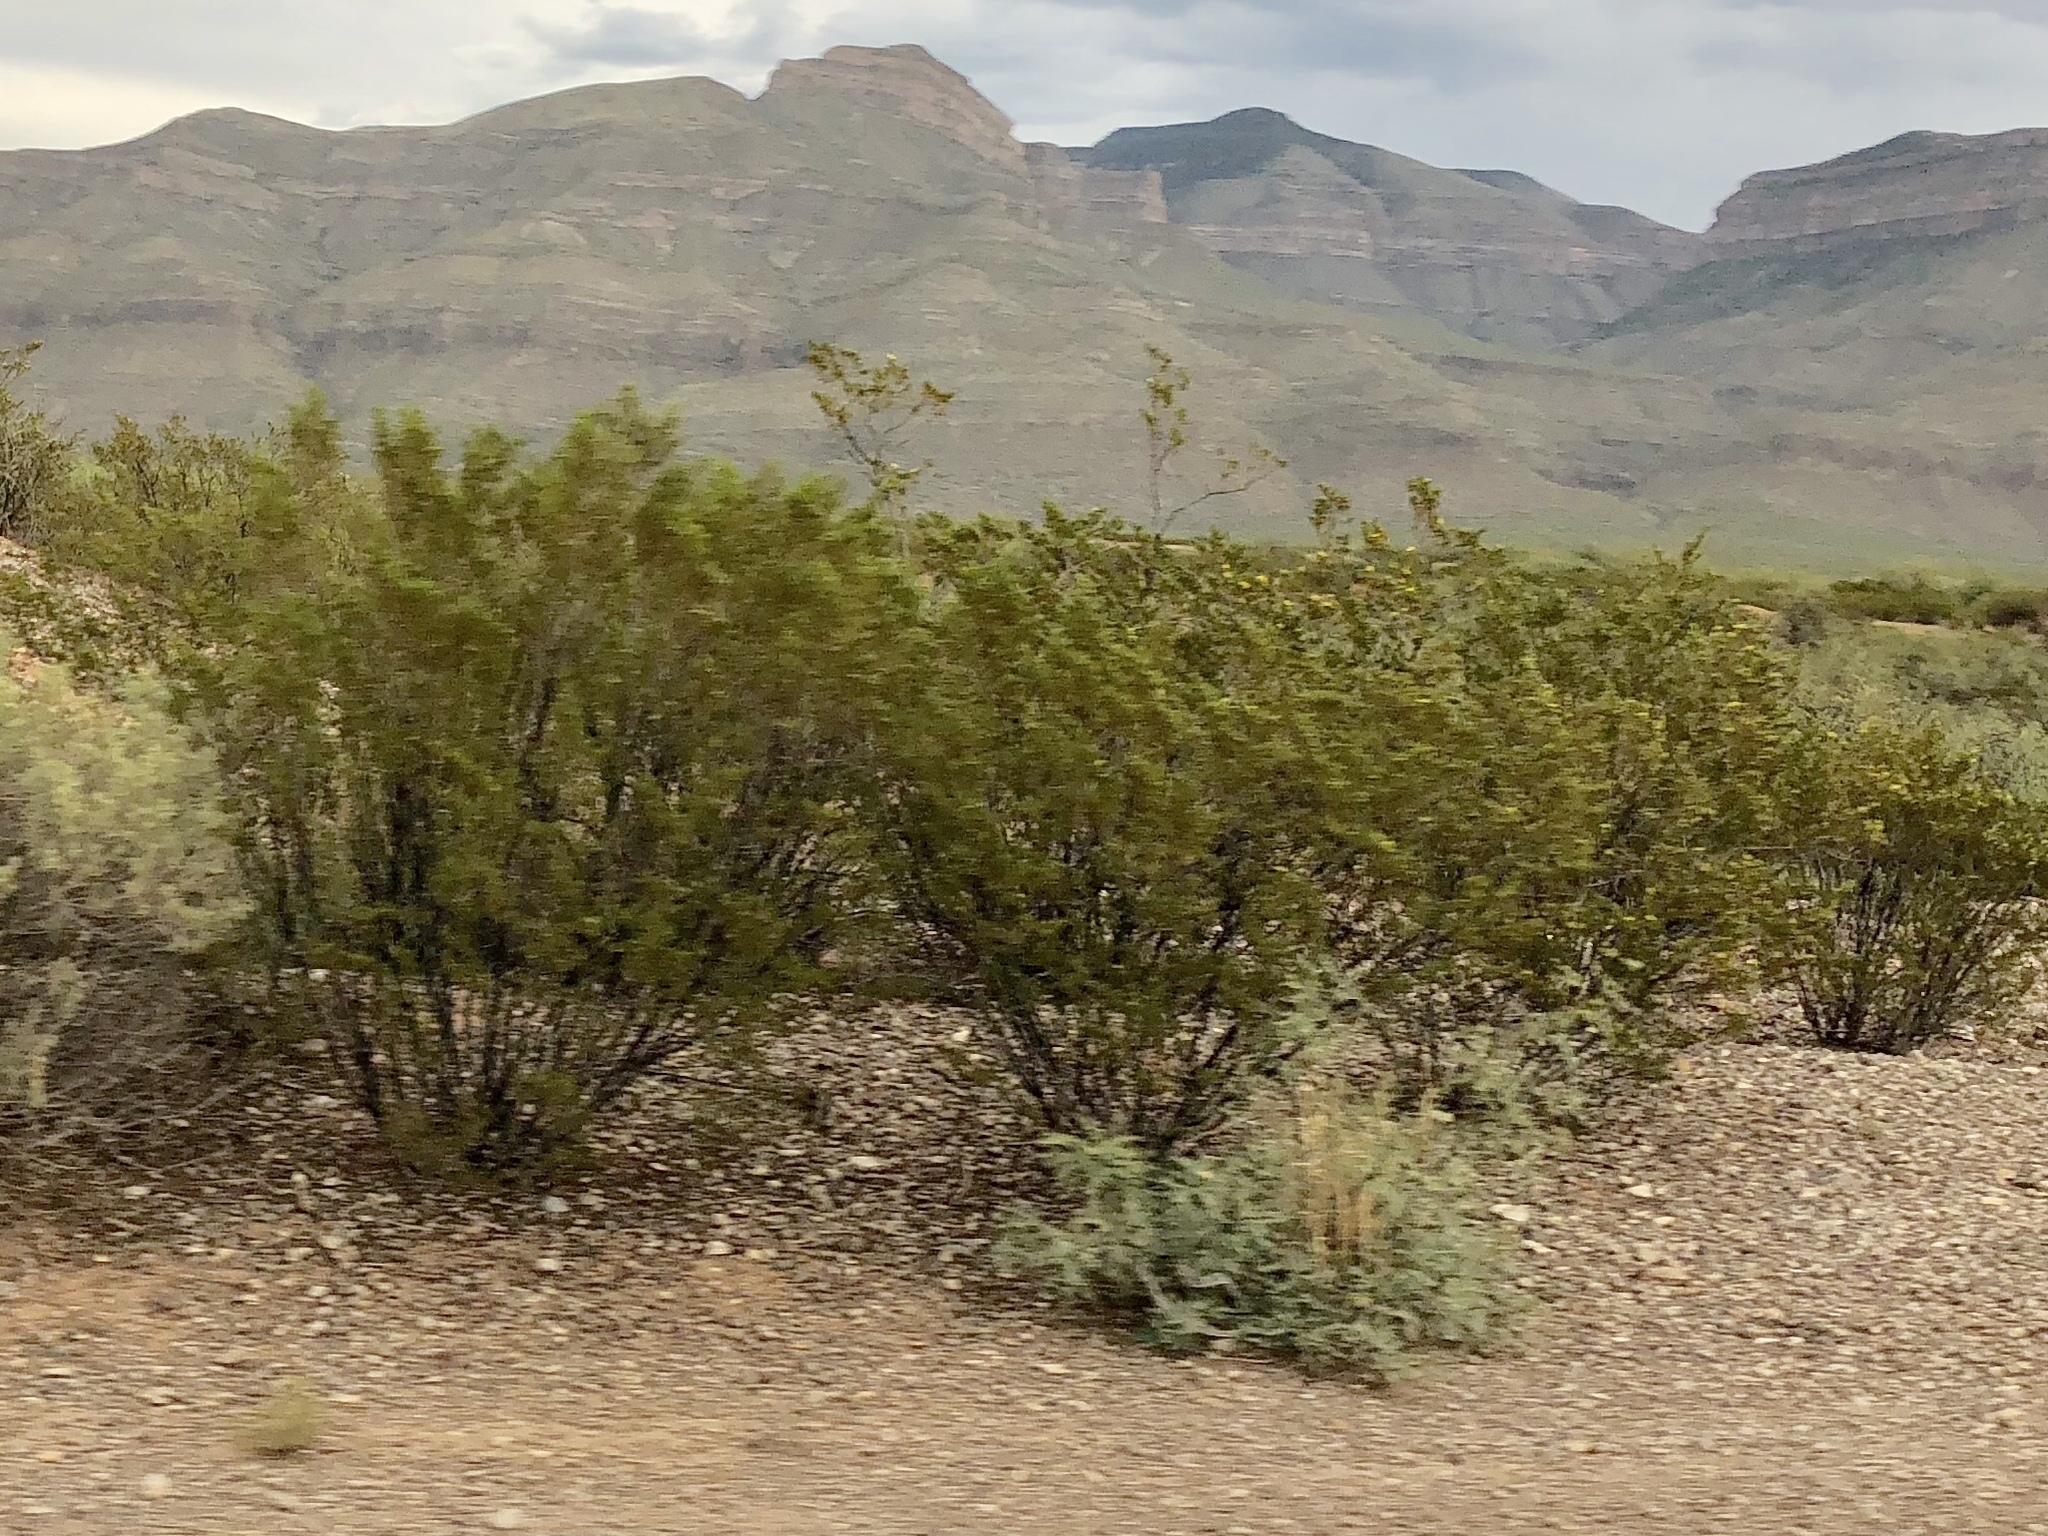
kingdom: Plantae
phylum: Tracheophyta
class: Magnoliopsida
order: Zygophyllales
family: Zygophyllaceae
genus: Larrea
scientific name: Larrea tridentata
